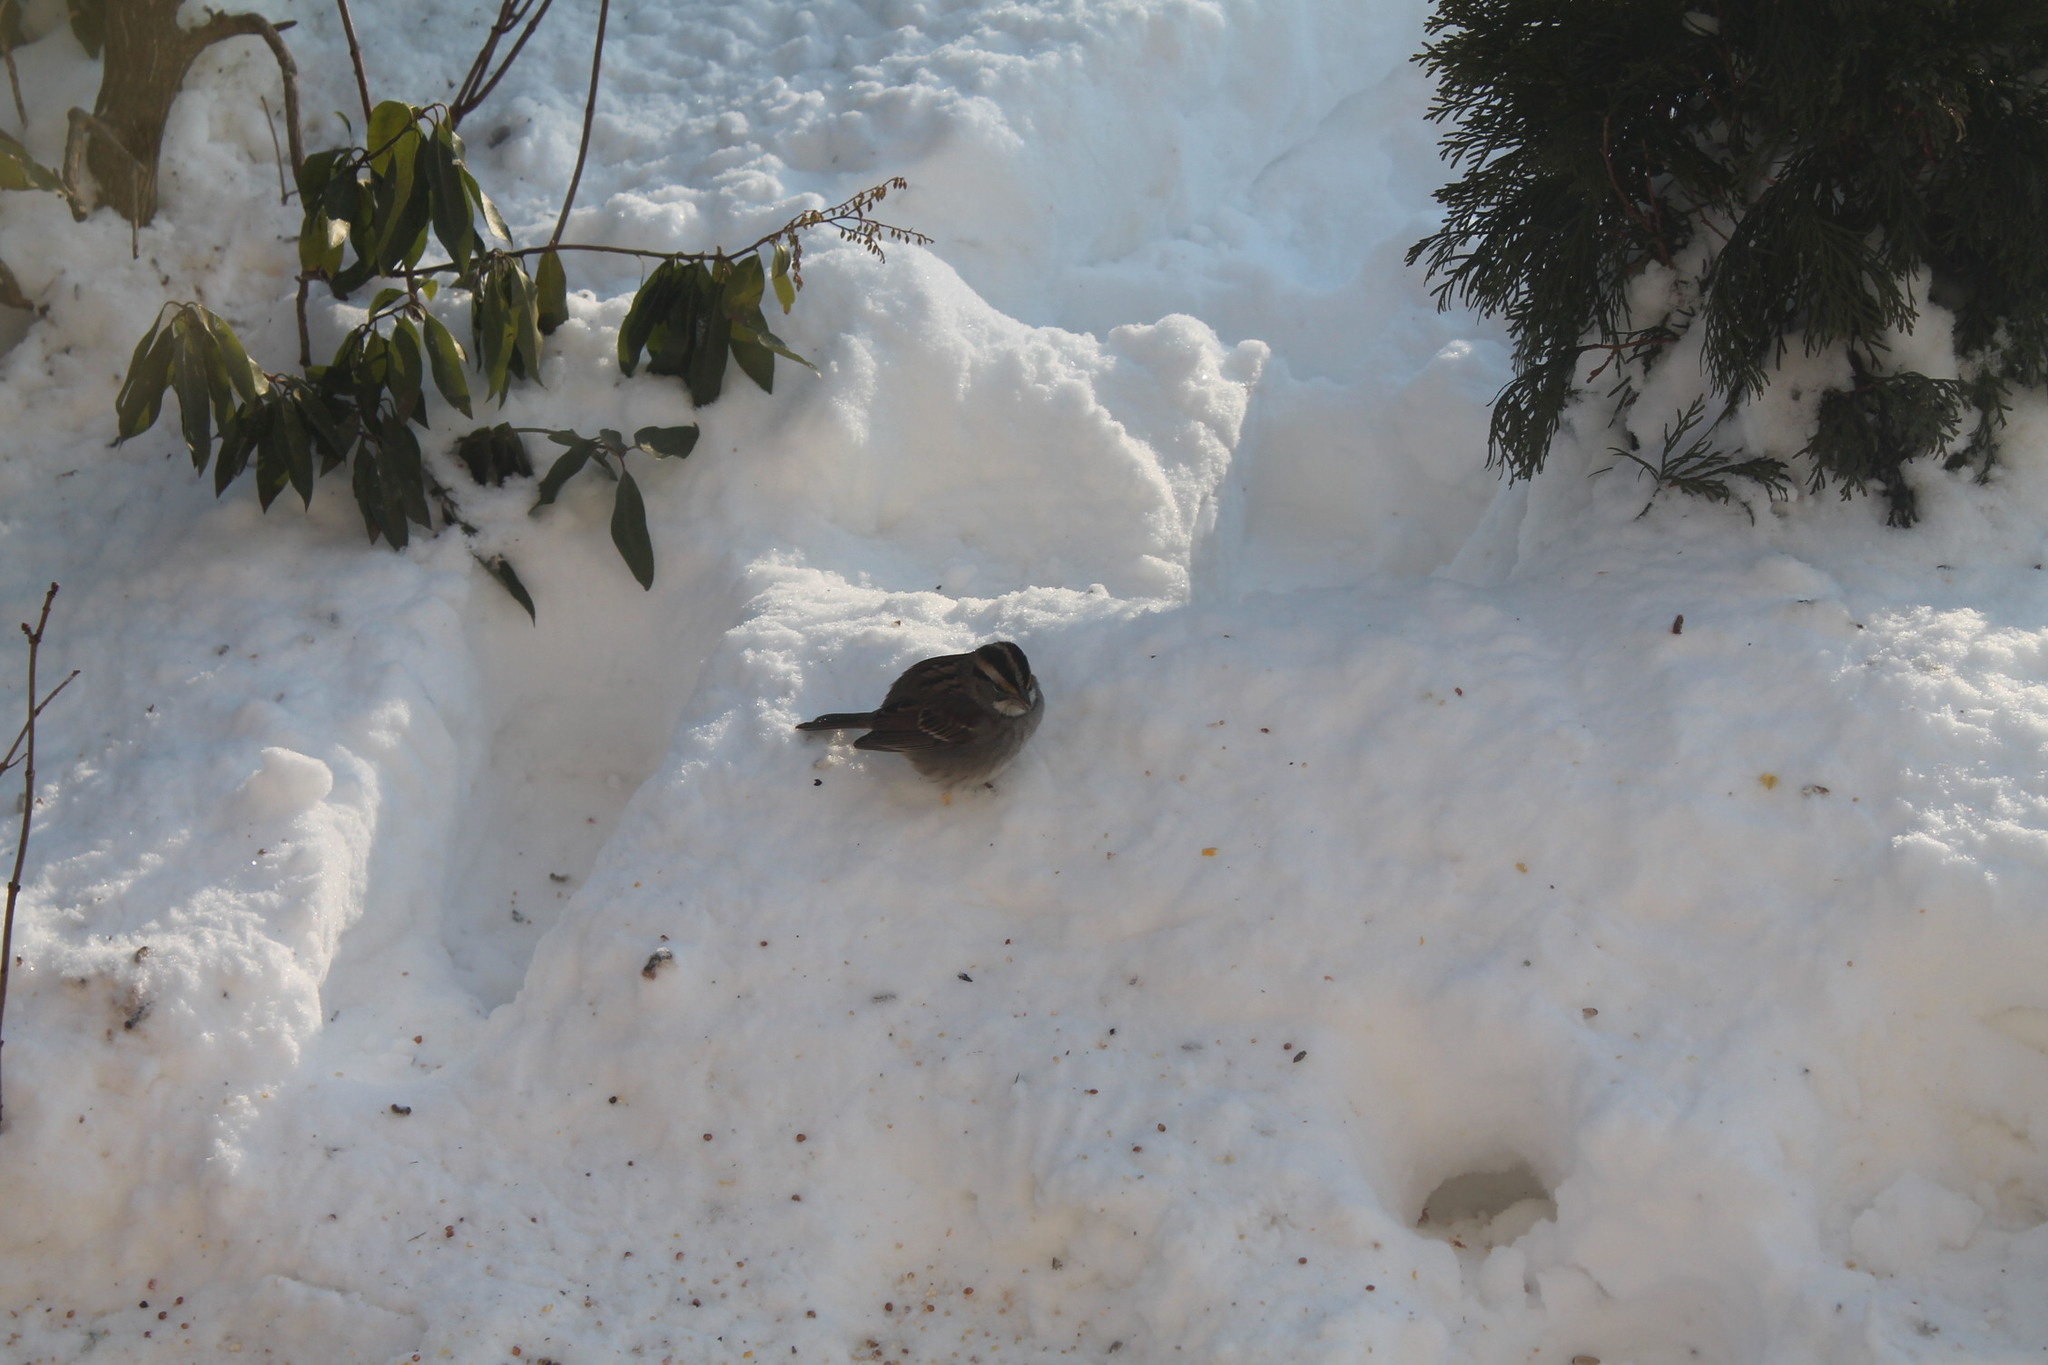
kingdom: Animalia
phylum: Chordata
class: Aves
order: Passeriformes
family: Passerellidae
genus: Zonotrichia
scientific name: Zonotrichia albicollis
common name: White-throated sparrow
